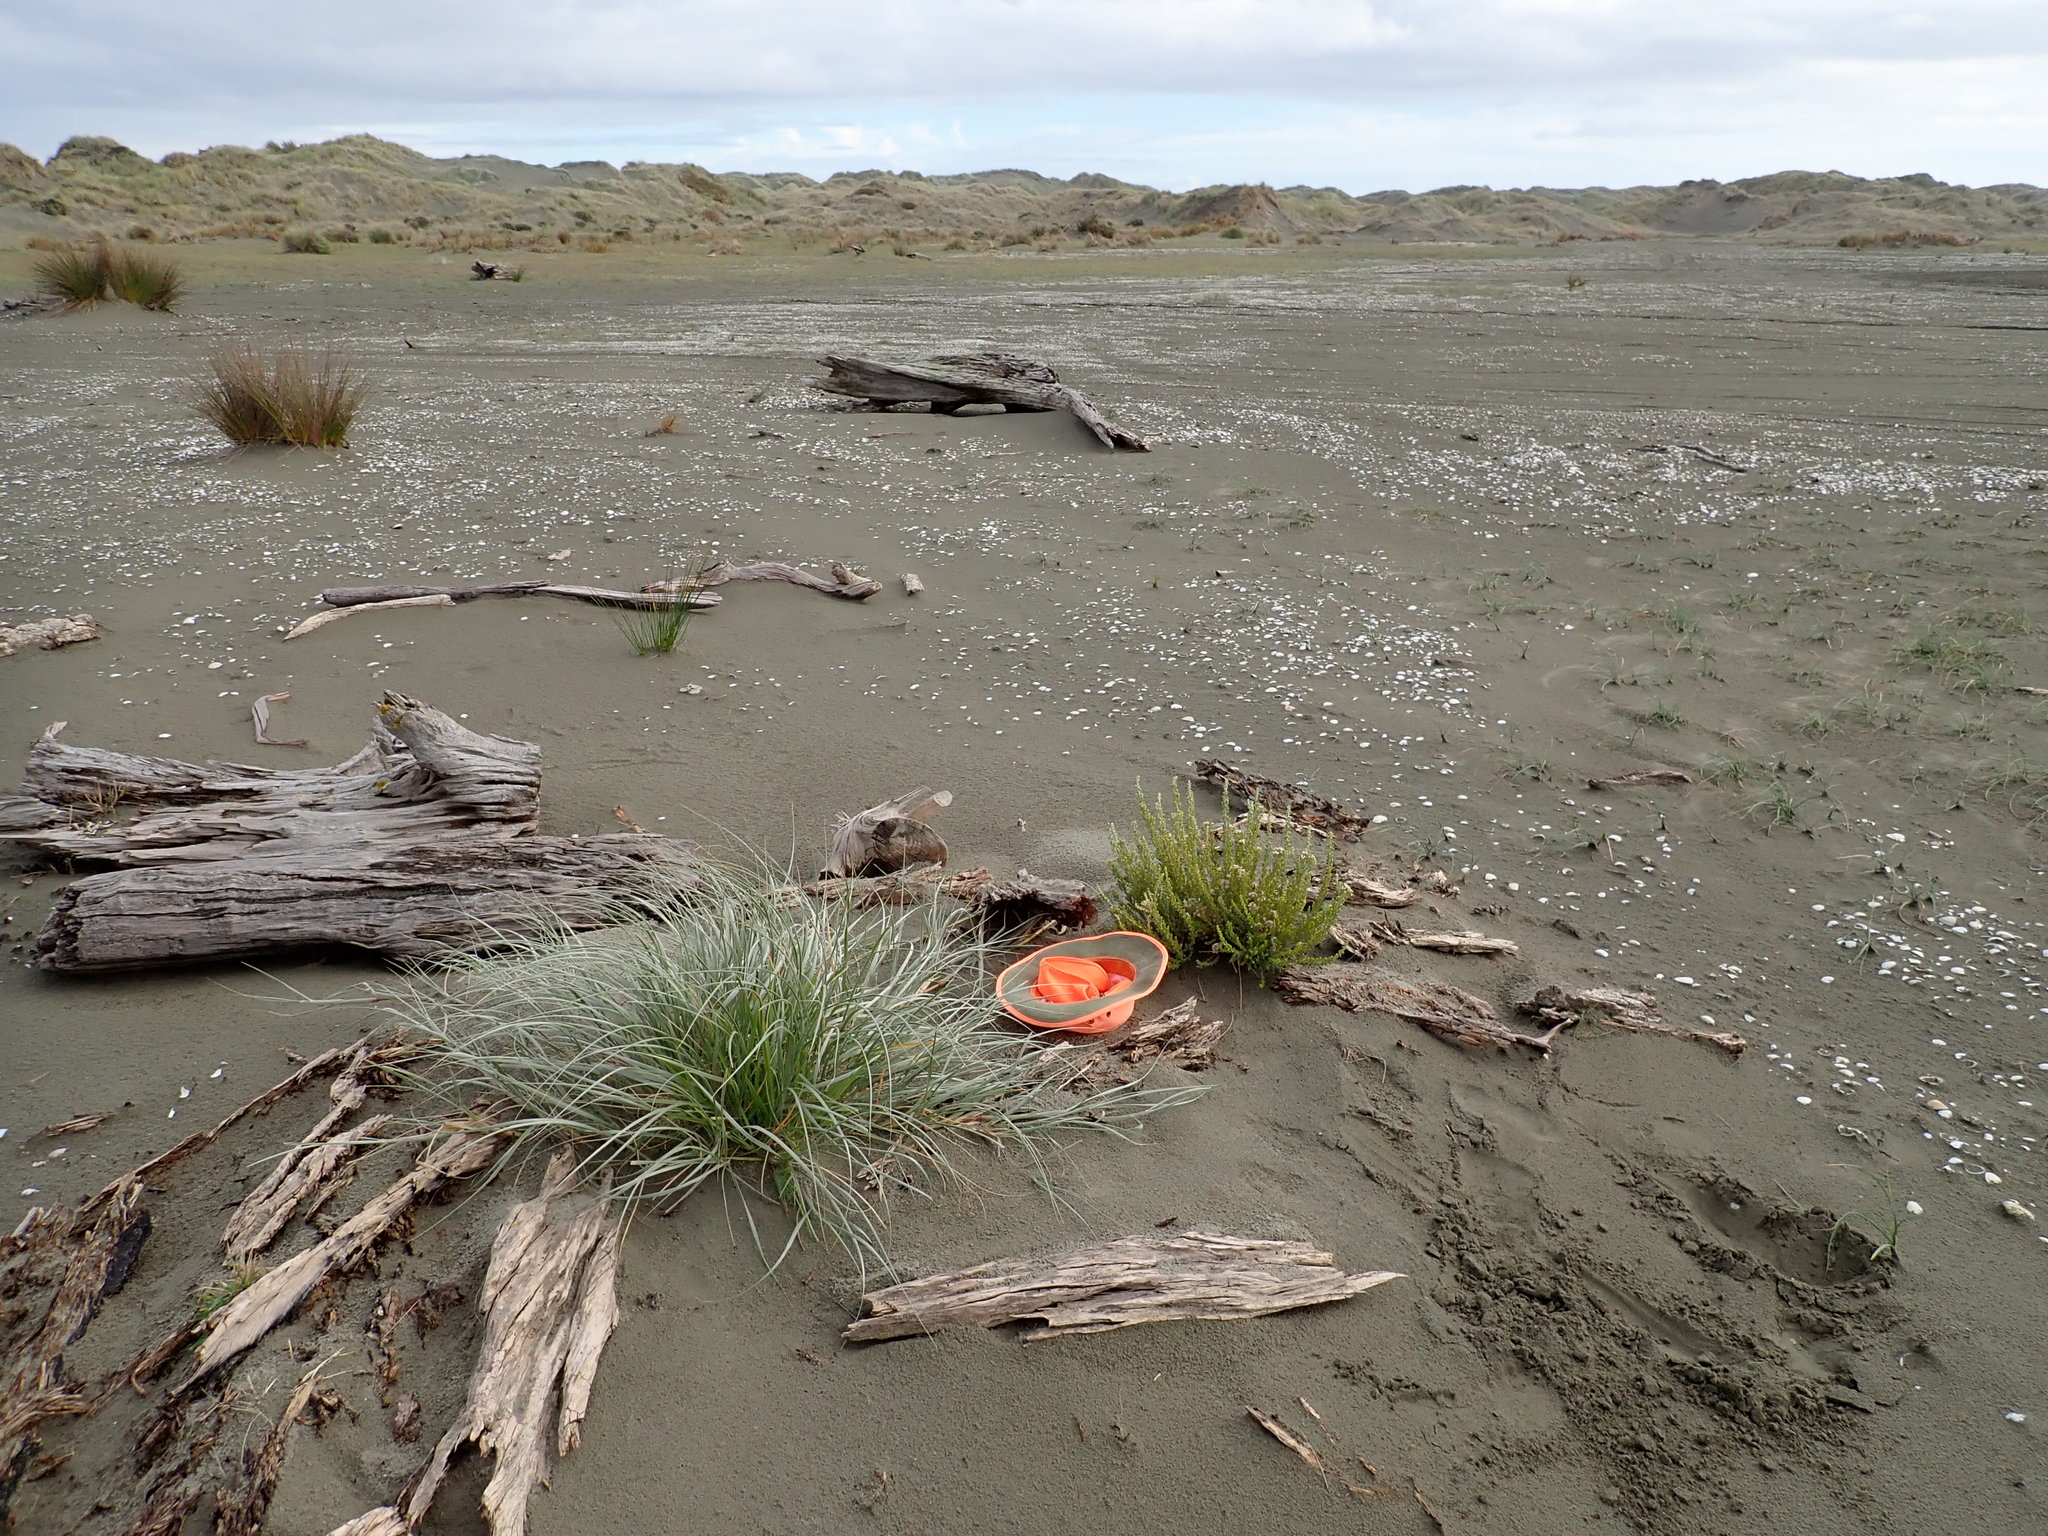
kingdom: Plantae
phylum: Tracheophyta
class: Magnoliopsida
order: Asterales
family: Asteraceae
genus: Ozothamnus
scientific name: Ozothamnus leptophyllus
